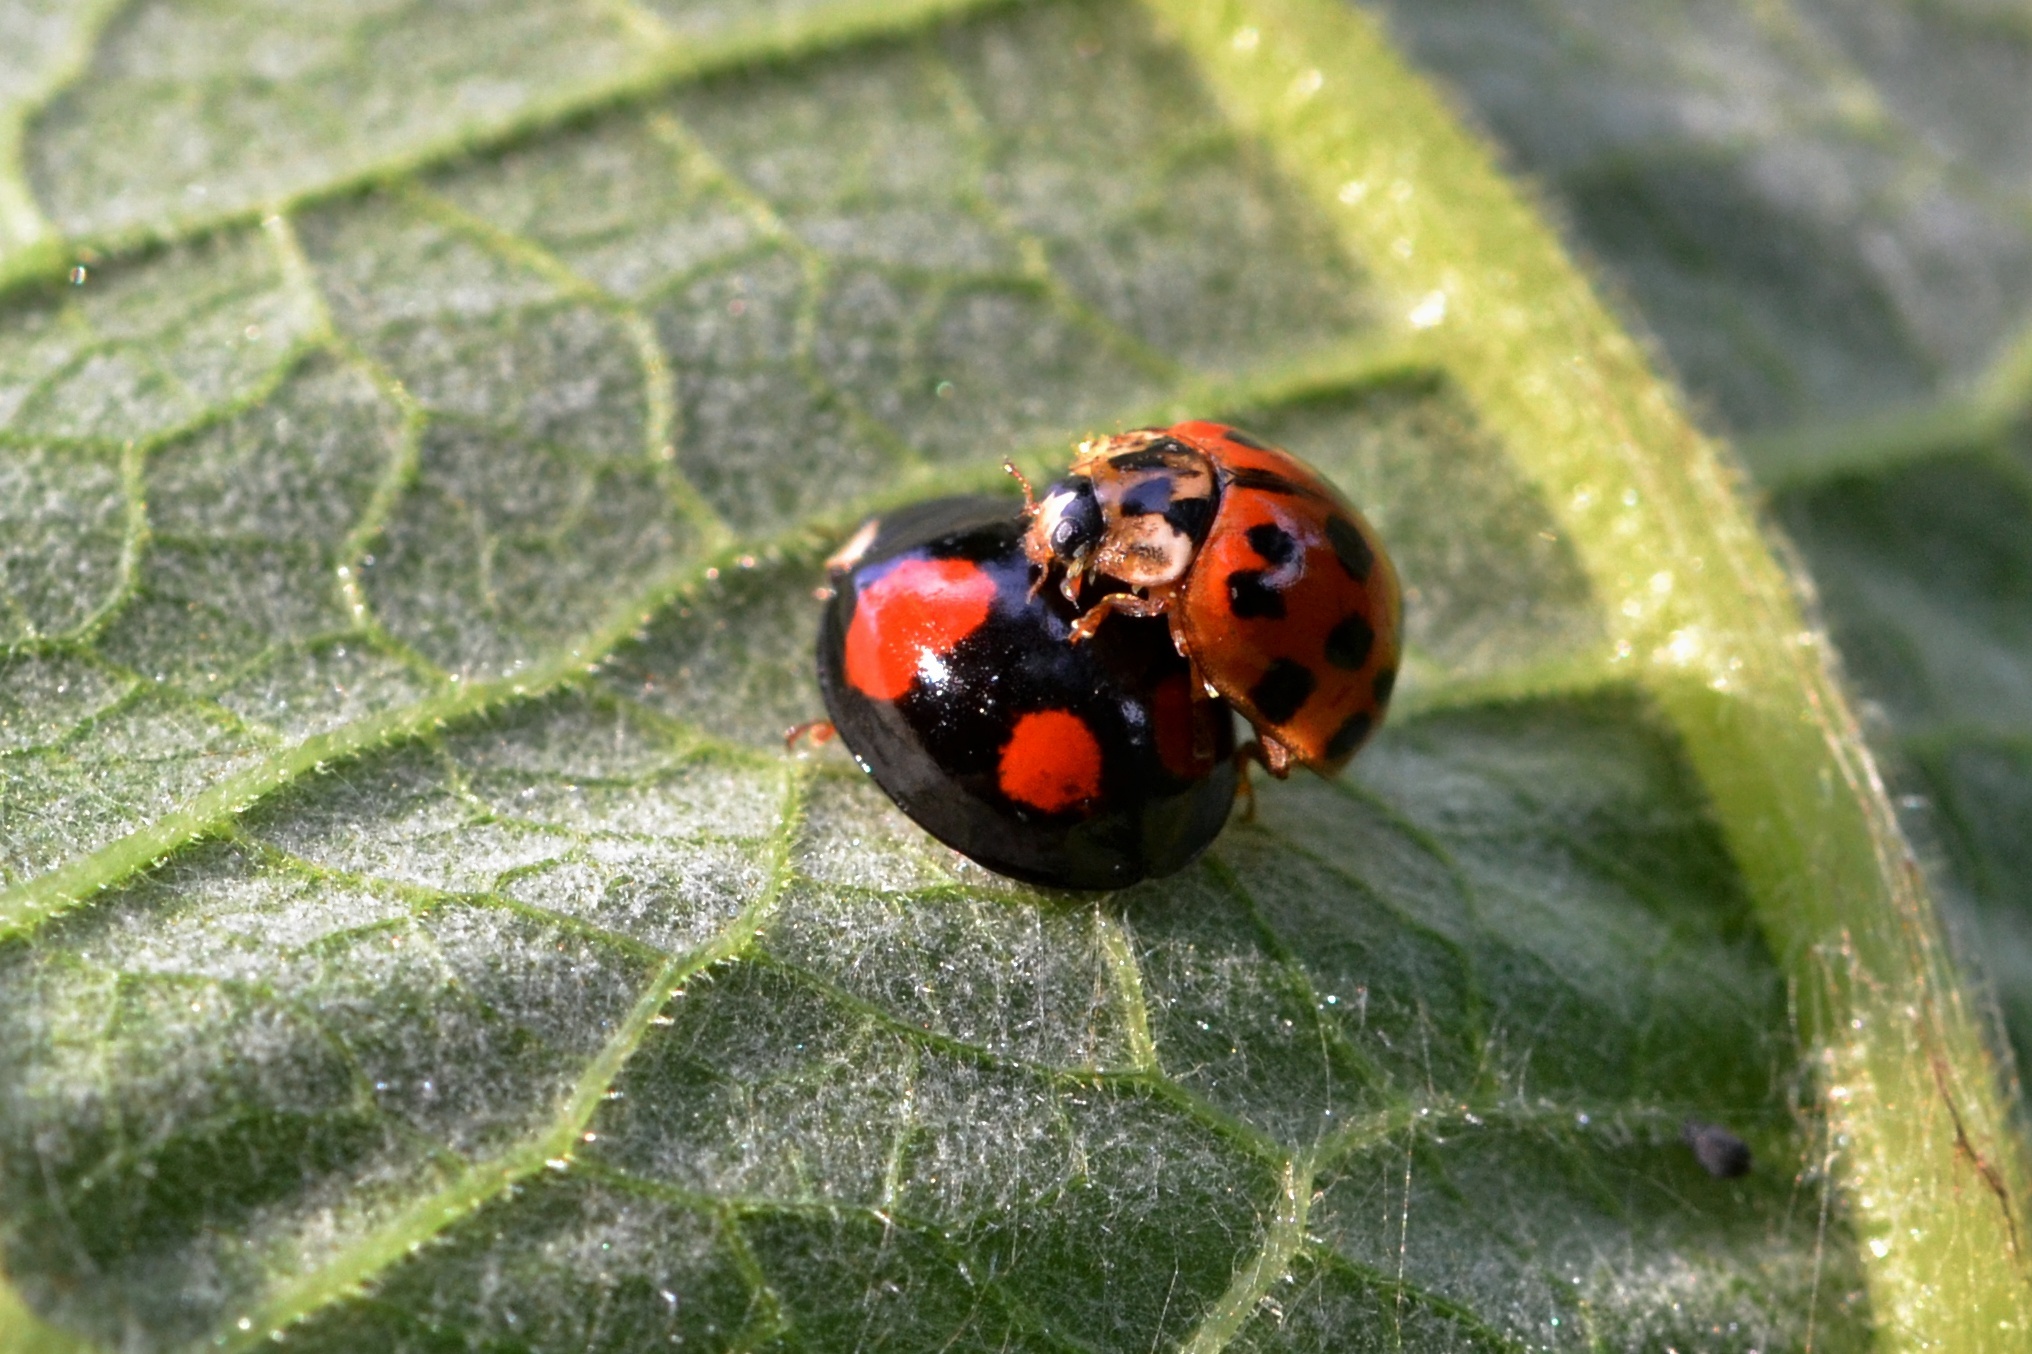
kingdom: Animalia
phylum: Arthropoda
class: Insecta
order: Coleoptera
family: Coccinellidae
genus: Harmonia
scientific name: Harmonia axyridis
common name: Harlequin ladybird
